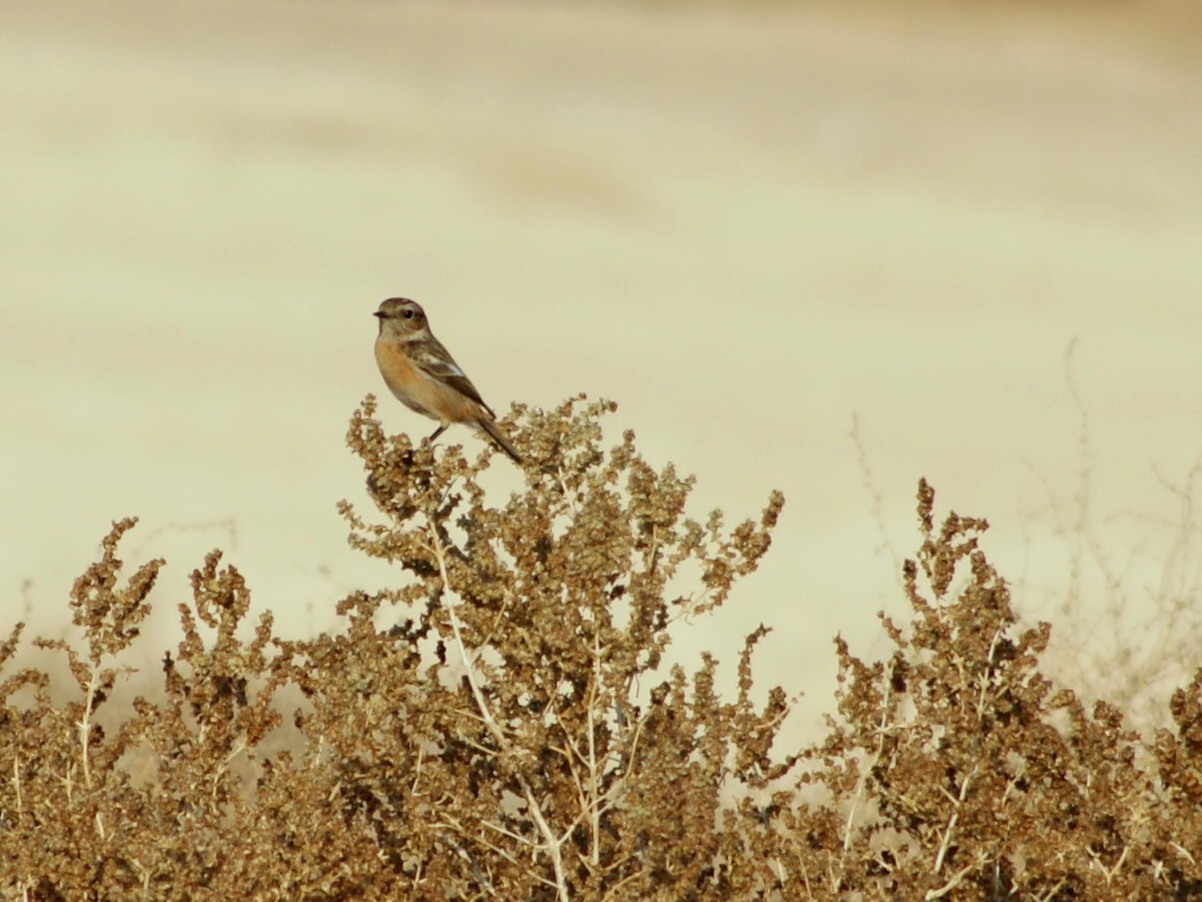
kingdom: Animalia
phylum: Chordata
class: Aves
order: Passeriformes
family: Muscicapidae
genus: Saxicola
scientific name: Saxicola rubicola
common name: European stonechat
